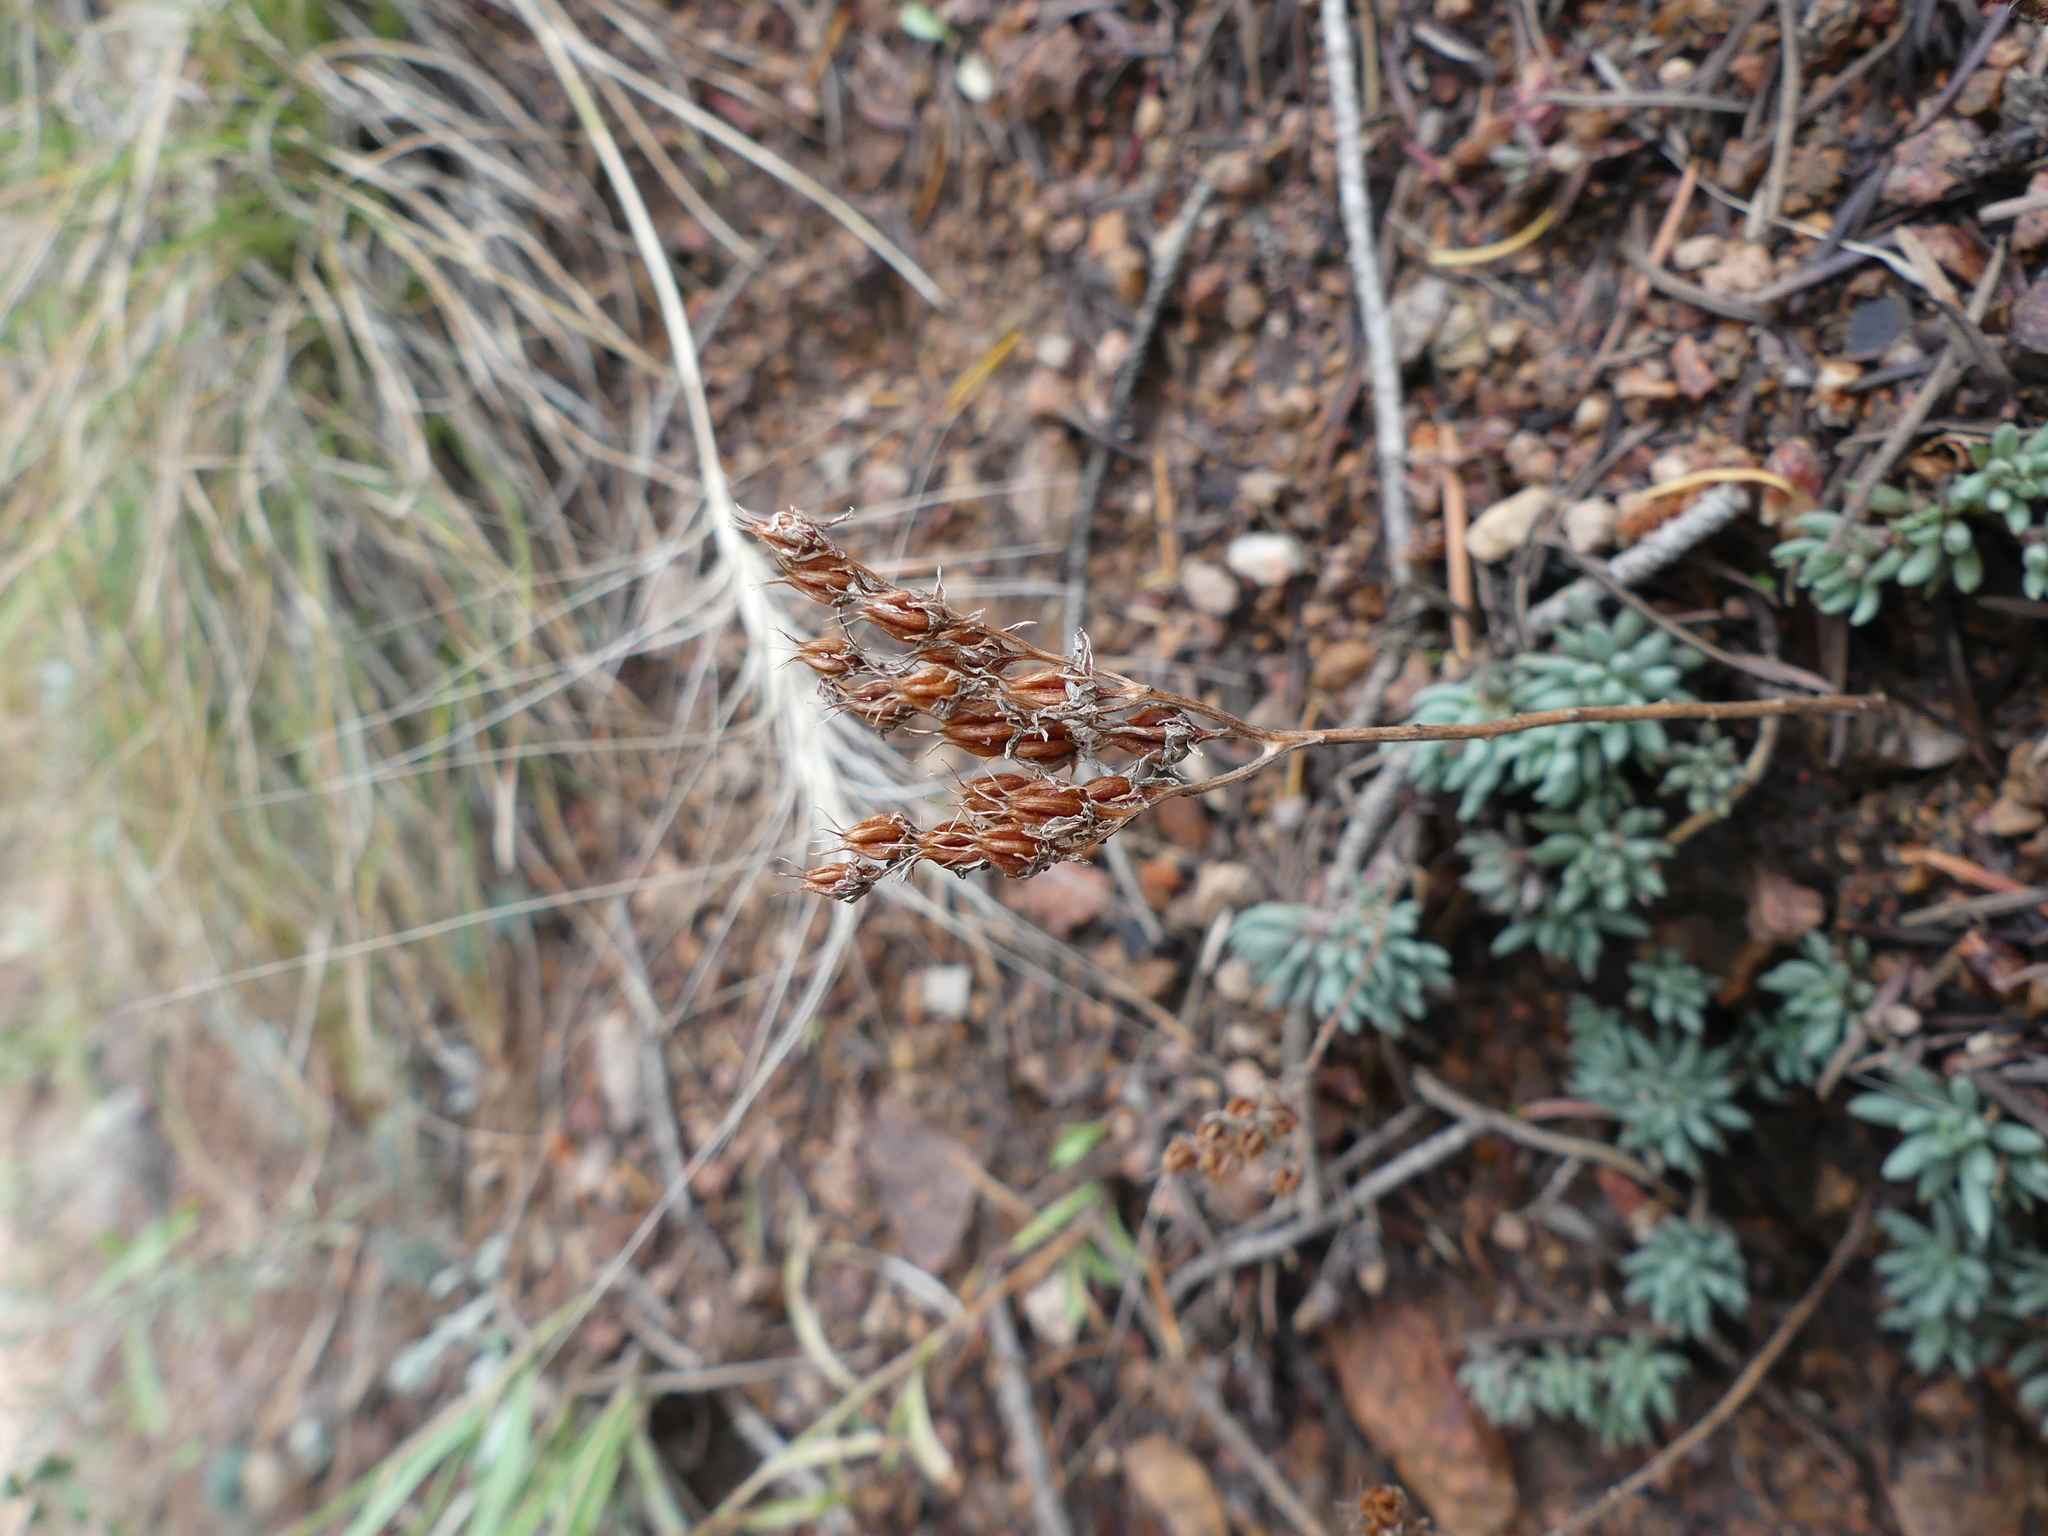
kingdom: Plantae
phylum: Tracheophyta
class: Magnoliopsida
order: Saxifragales
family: Crassulaceae
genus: Sedum
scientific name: Sedum lanceolatum
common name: Common stonecrop
